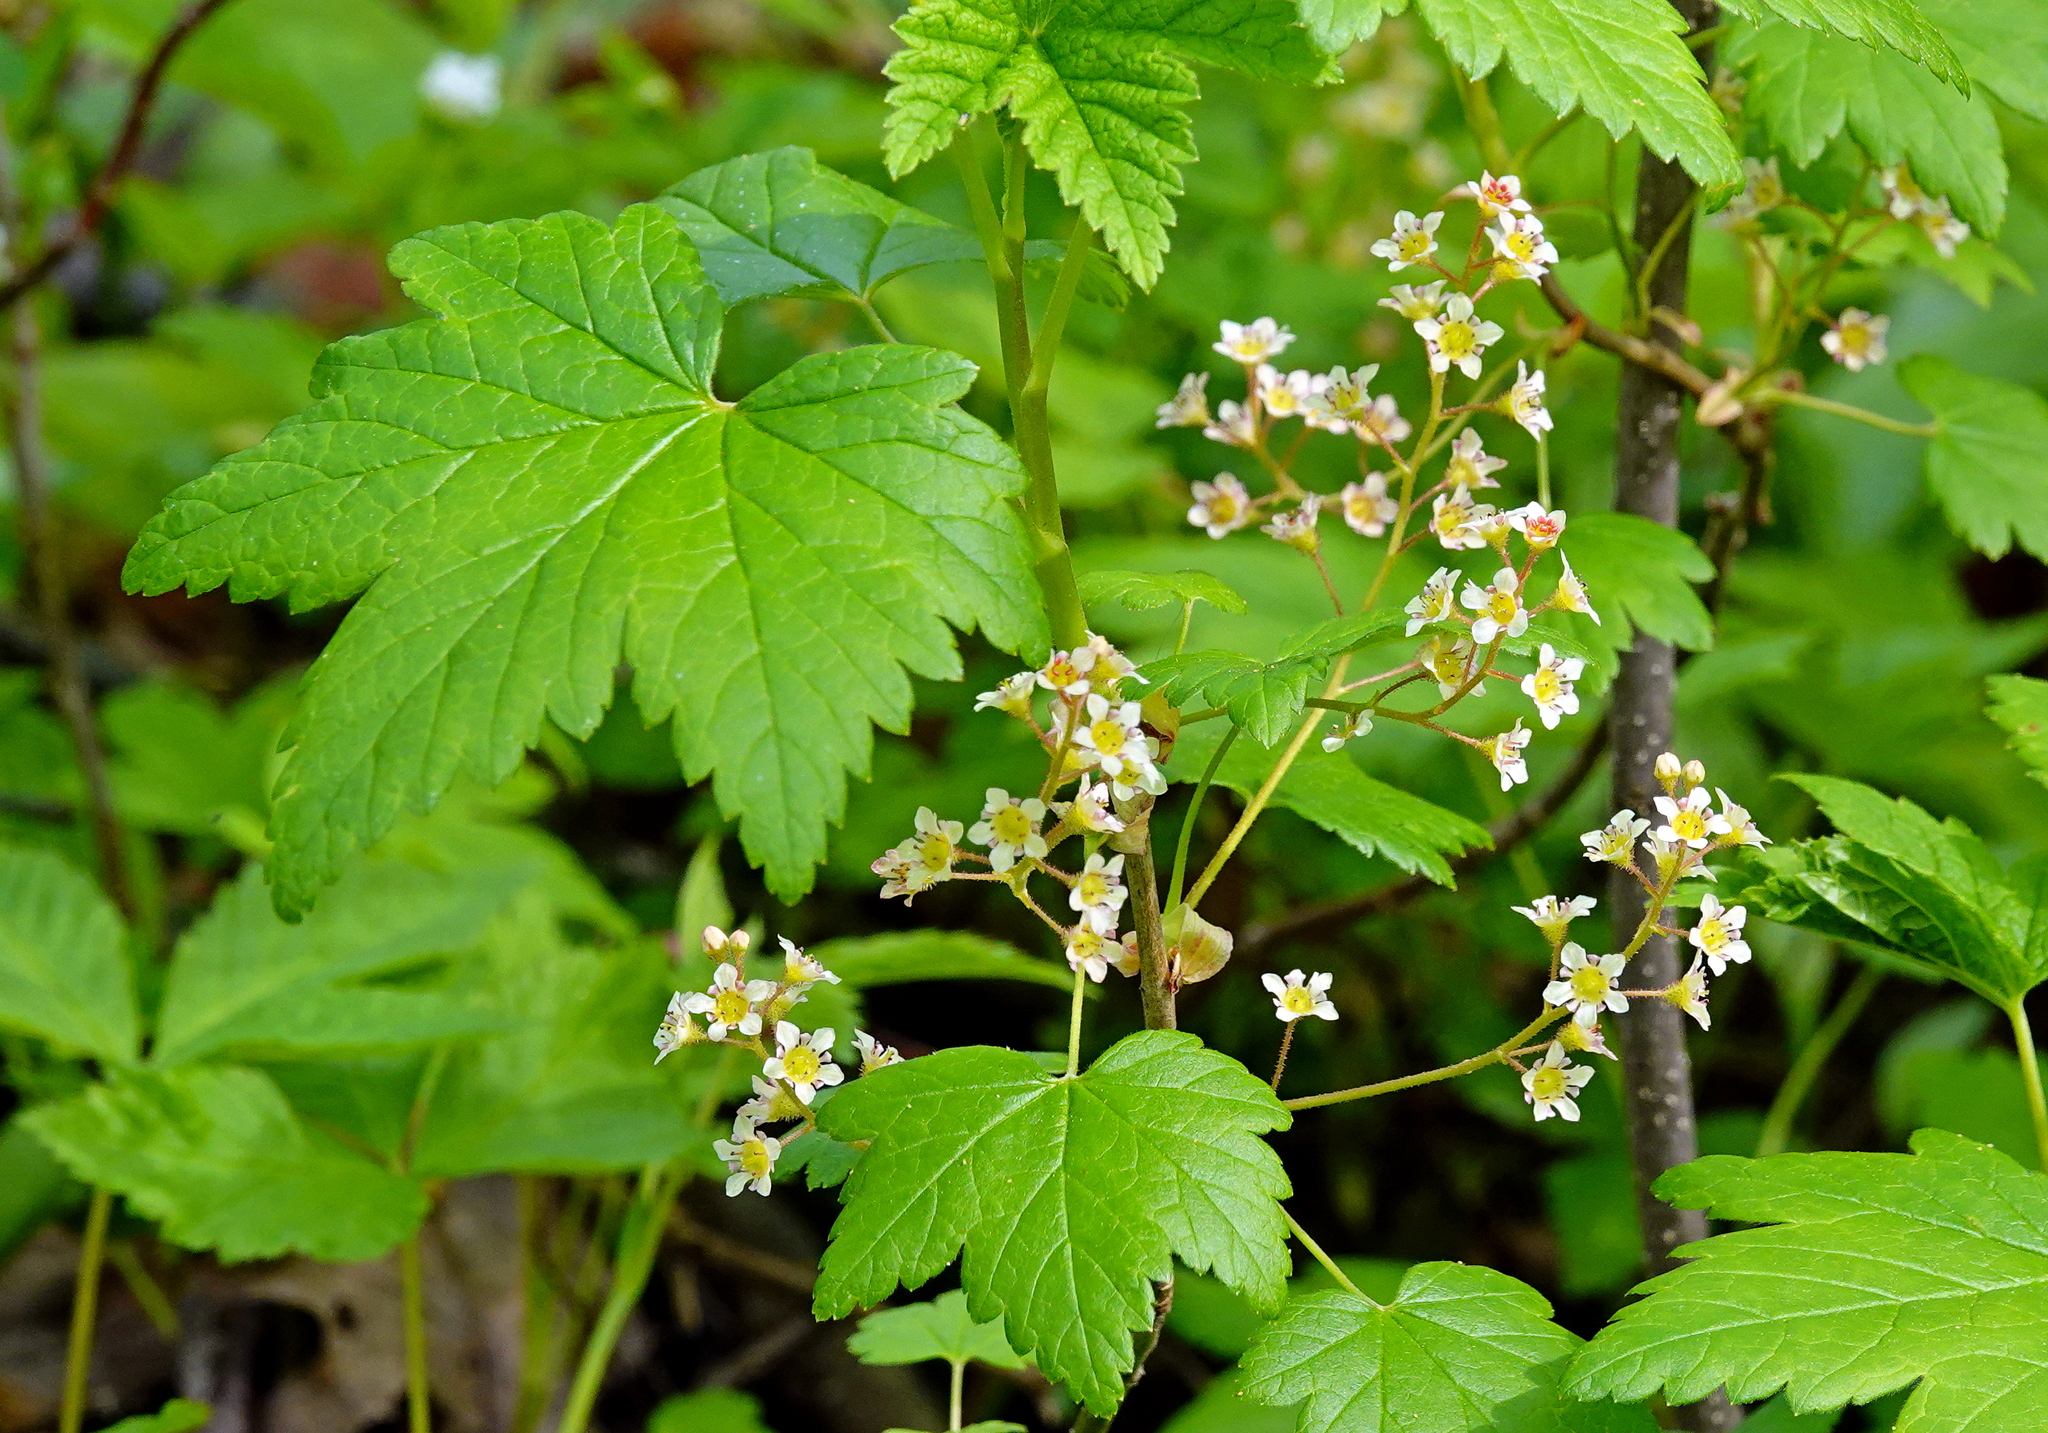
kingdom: Plantae
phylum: Tracheophyta
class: Magnoliopsida
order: Saxifragales
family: Grossulariaceae
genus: Ribes
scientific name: Ribes glandulosum
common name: Skunk currant
